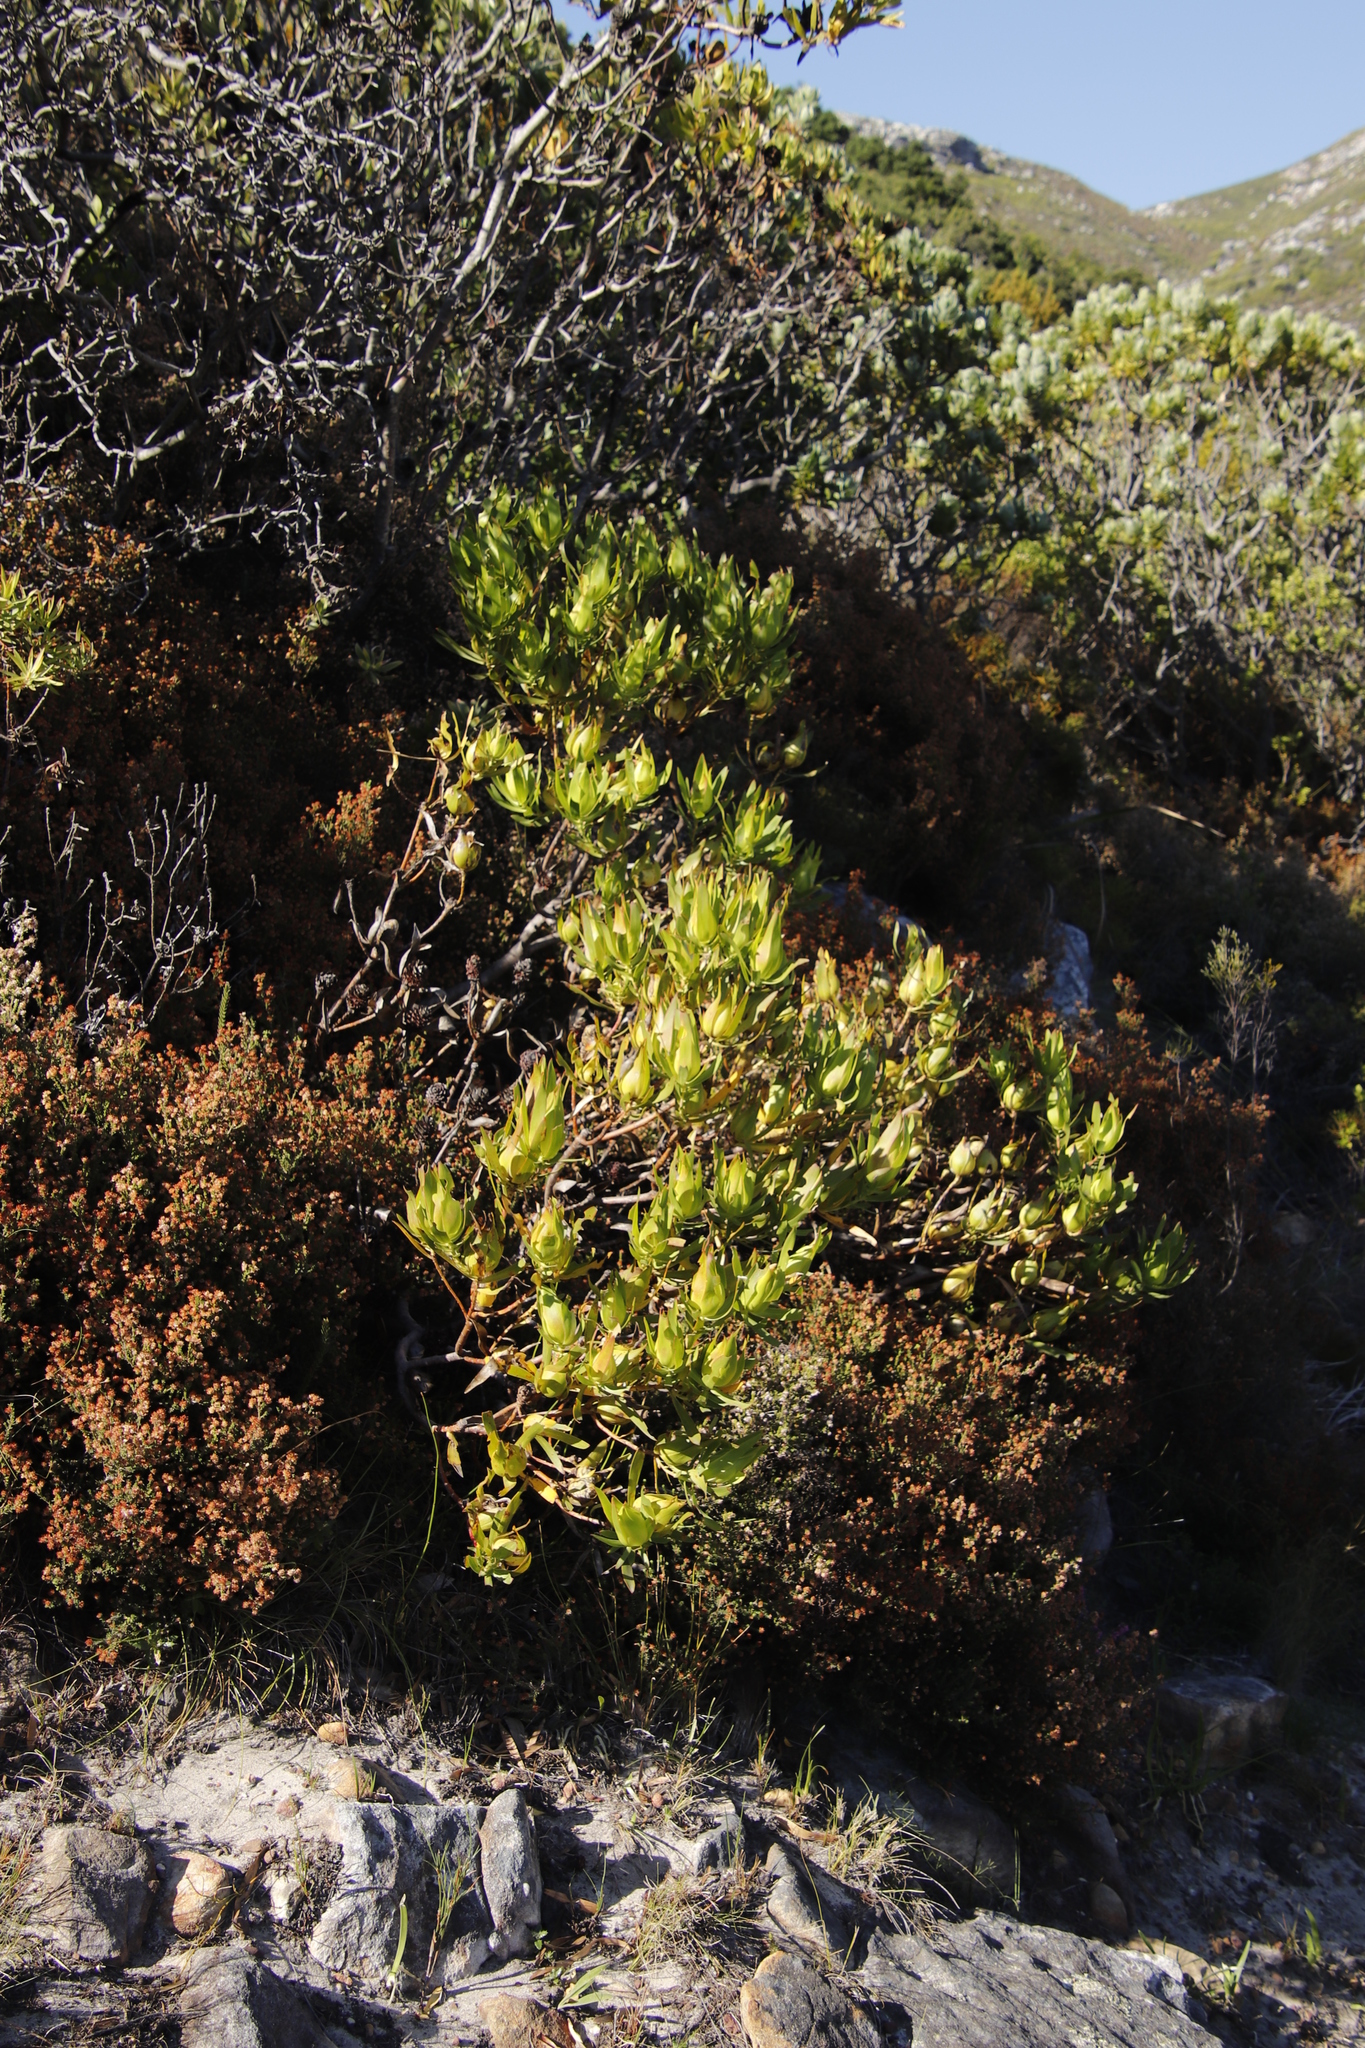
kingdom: Plantae
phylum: Tracheophyta
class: Magnoliopsida
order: Proteales
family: Proteaceae
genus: Leucadendron
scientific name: Leucadendron salignum
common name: Common sunshine conebush
